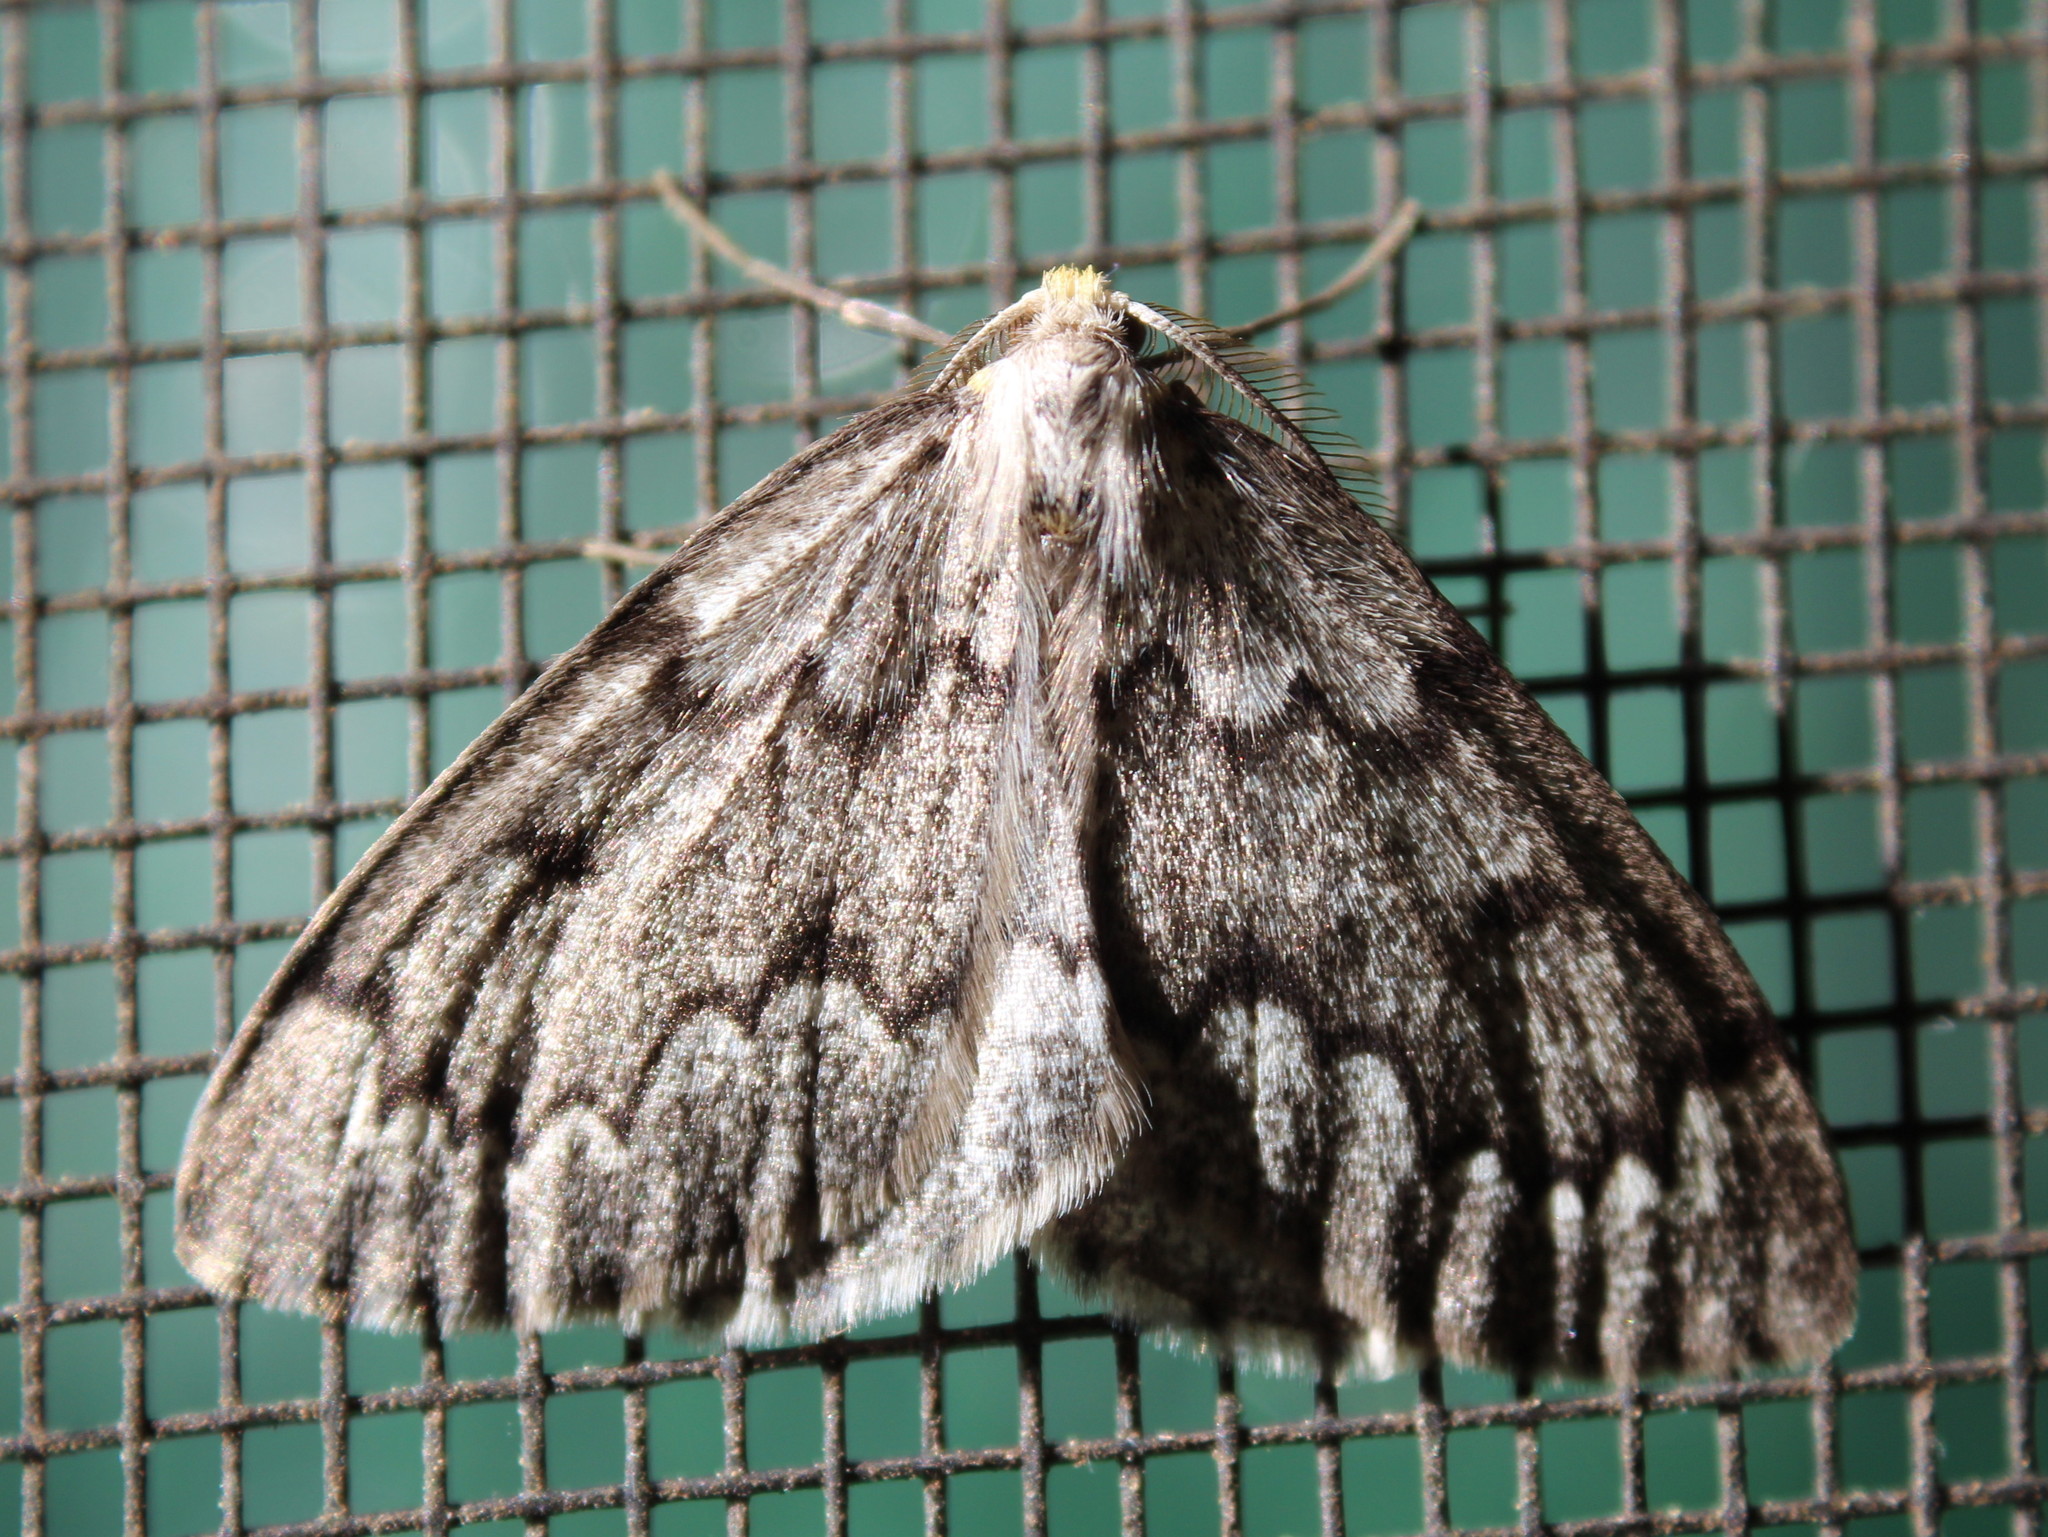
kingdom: Animalia
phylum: Arthropoda
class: Insecta
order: Lepidoptera
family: Geometridae
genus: Nepytia
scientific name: Nepytia canosaria
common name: False hemlock looper
